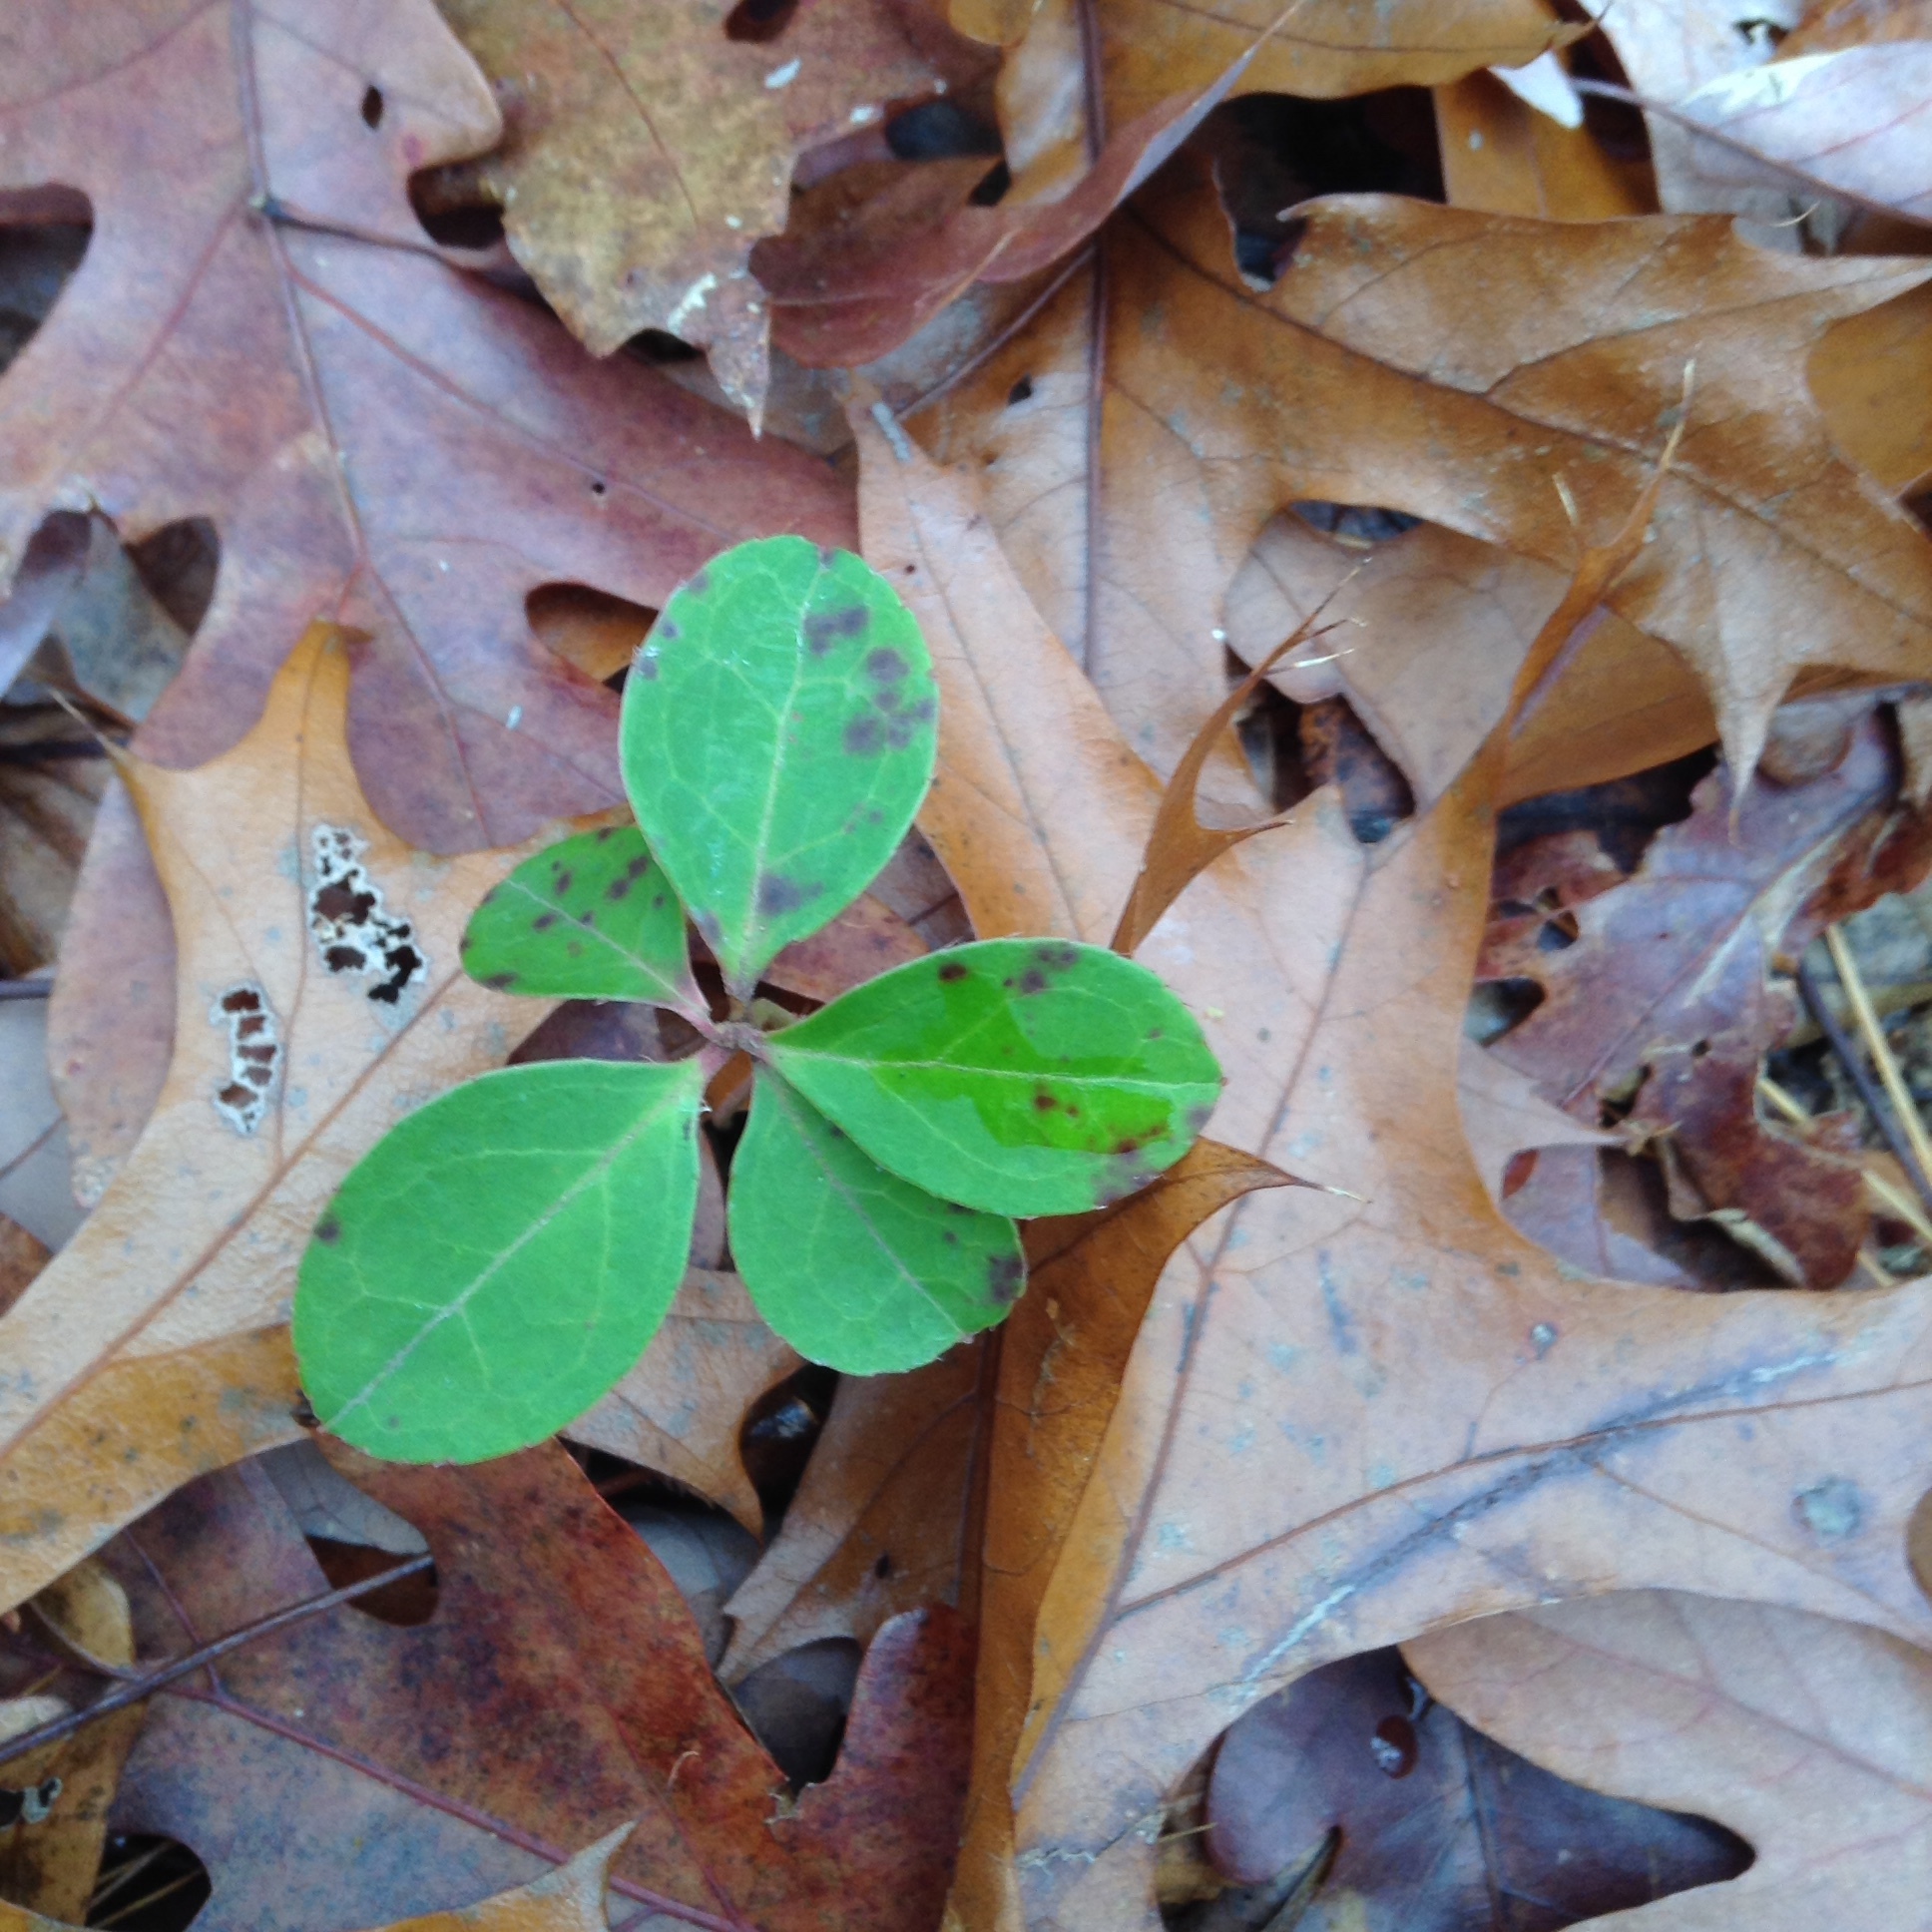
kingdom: Plantae
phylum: Tracheophyta
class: Magnoliopsida
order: Ericales
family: Ericaceae
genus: Gaultheria
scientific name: Gaultheria procumbens
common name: Checkerberry
